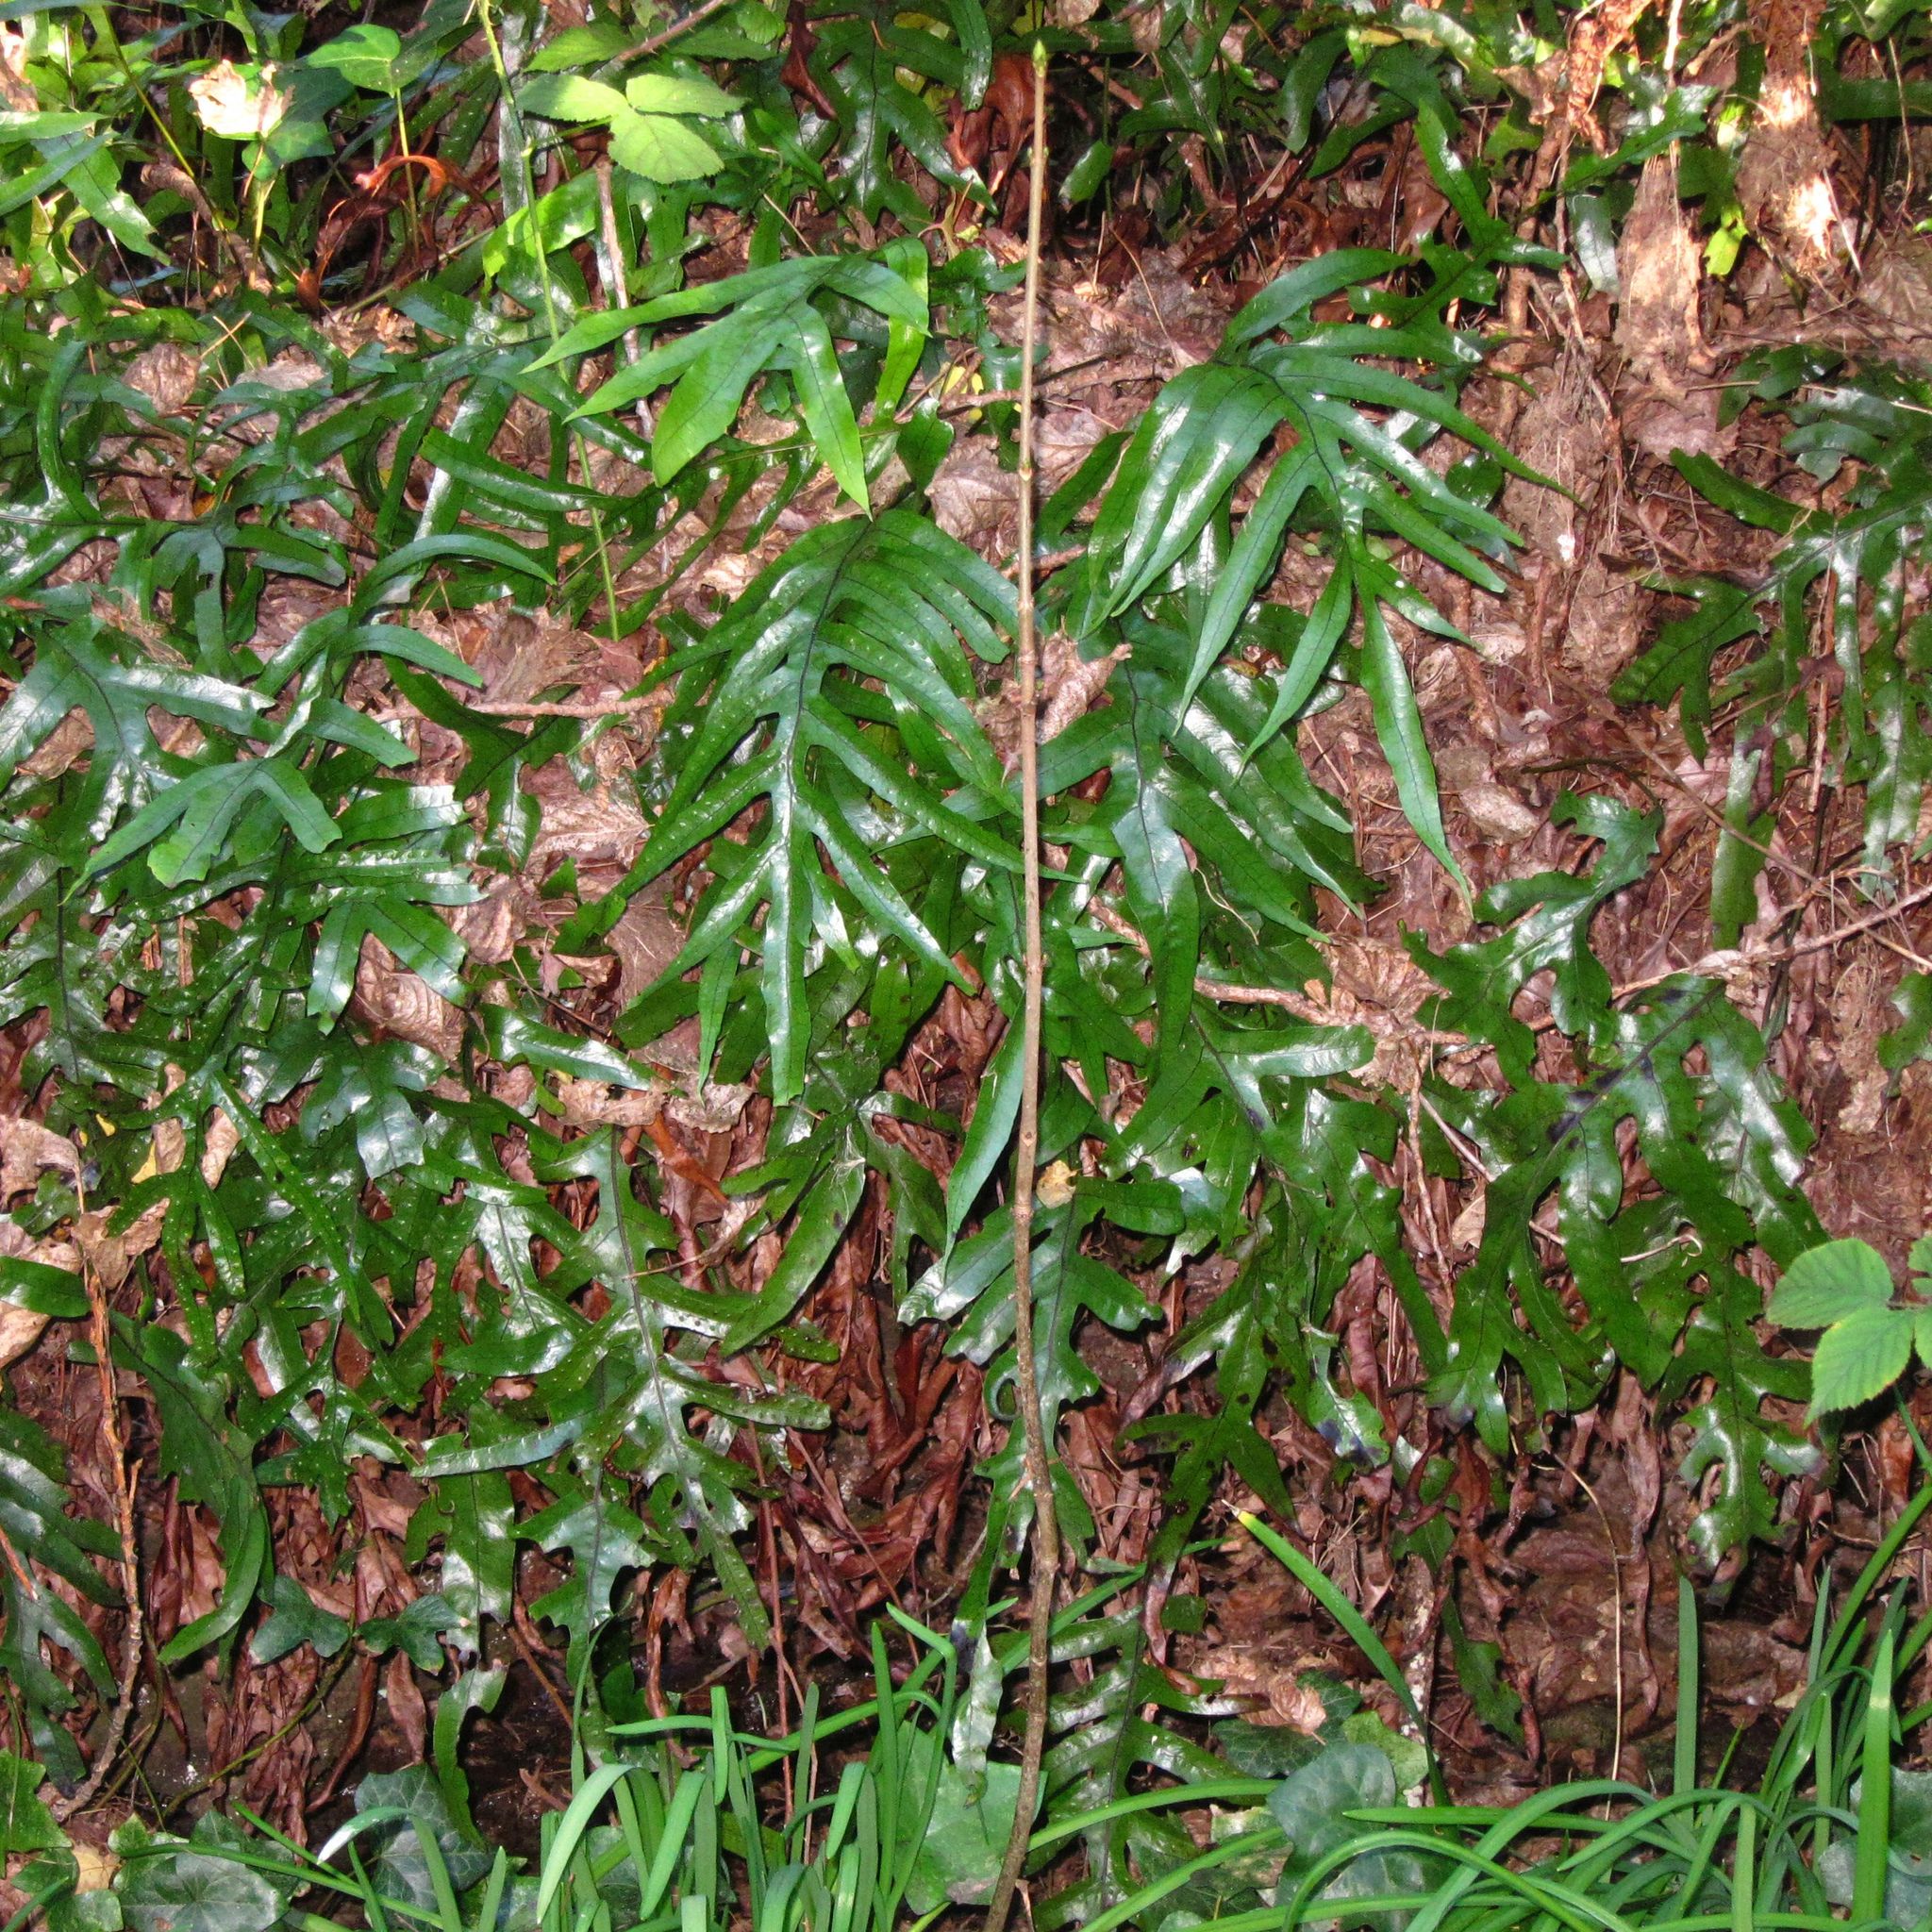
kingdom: Plantae
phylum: Tracheophyta
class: Polypodiopsida
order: Polypodiales
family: Polypodiaceae
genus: Lecanopteris
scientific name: Lecanopteris pustulata
